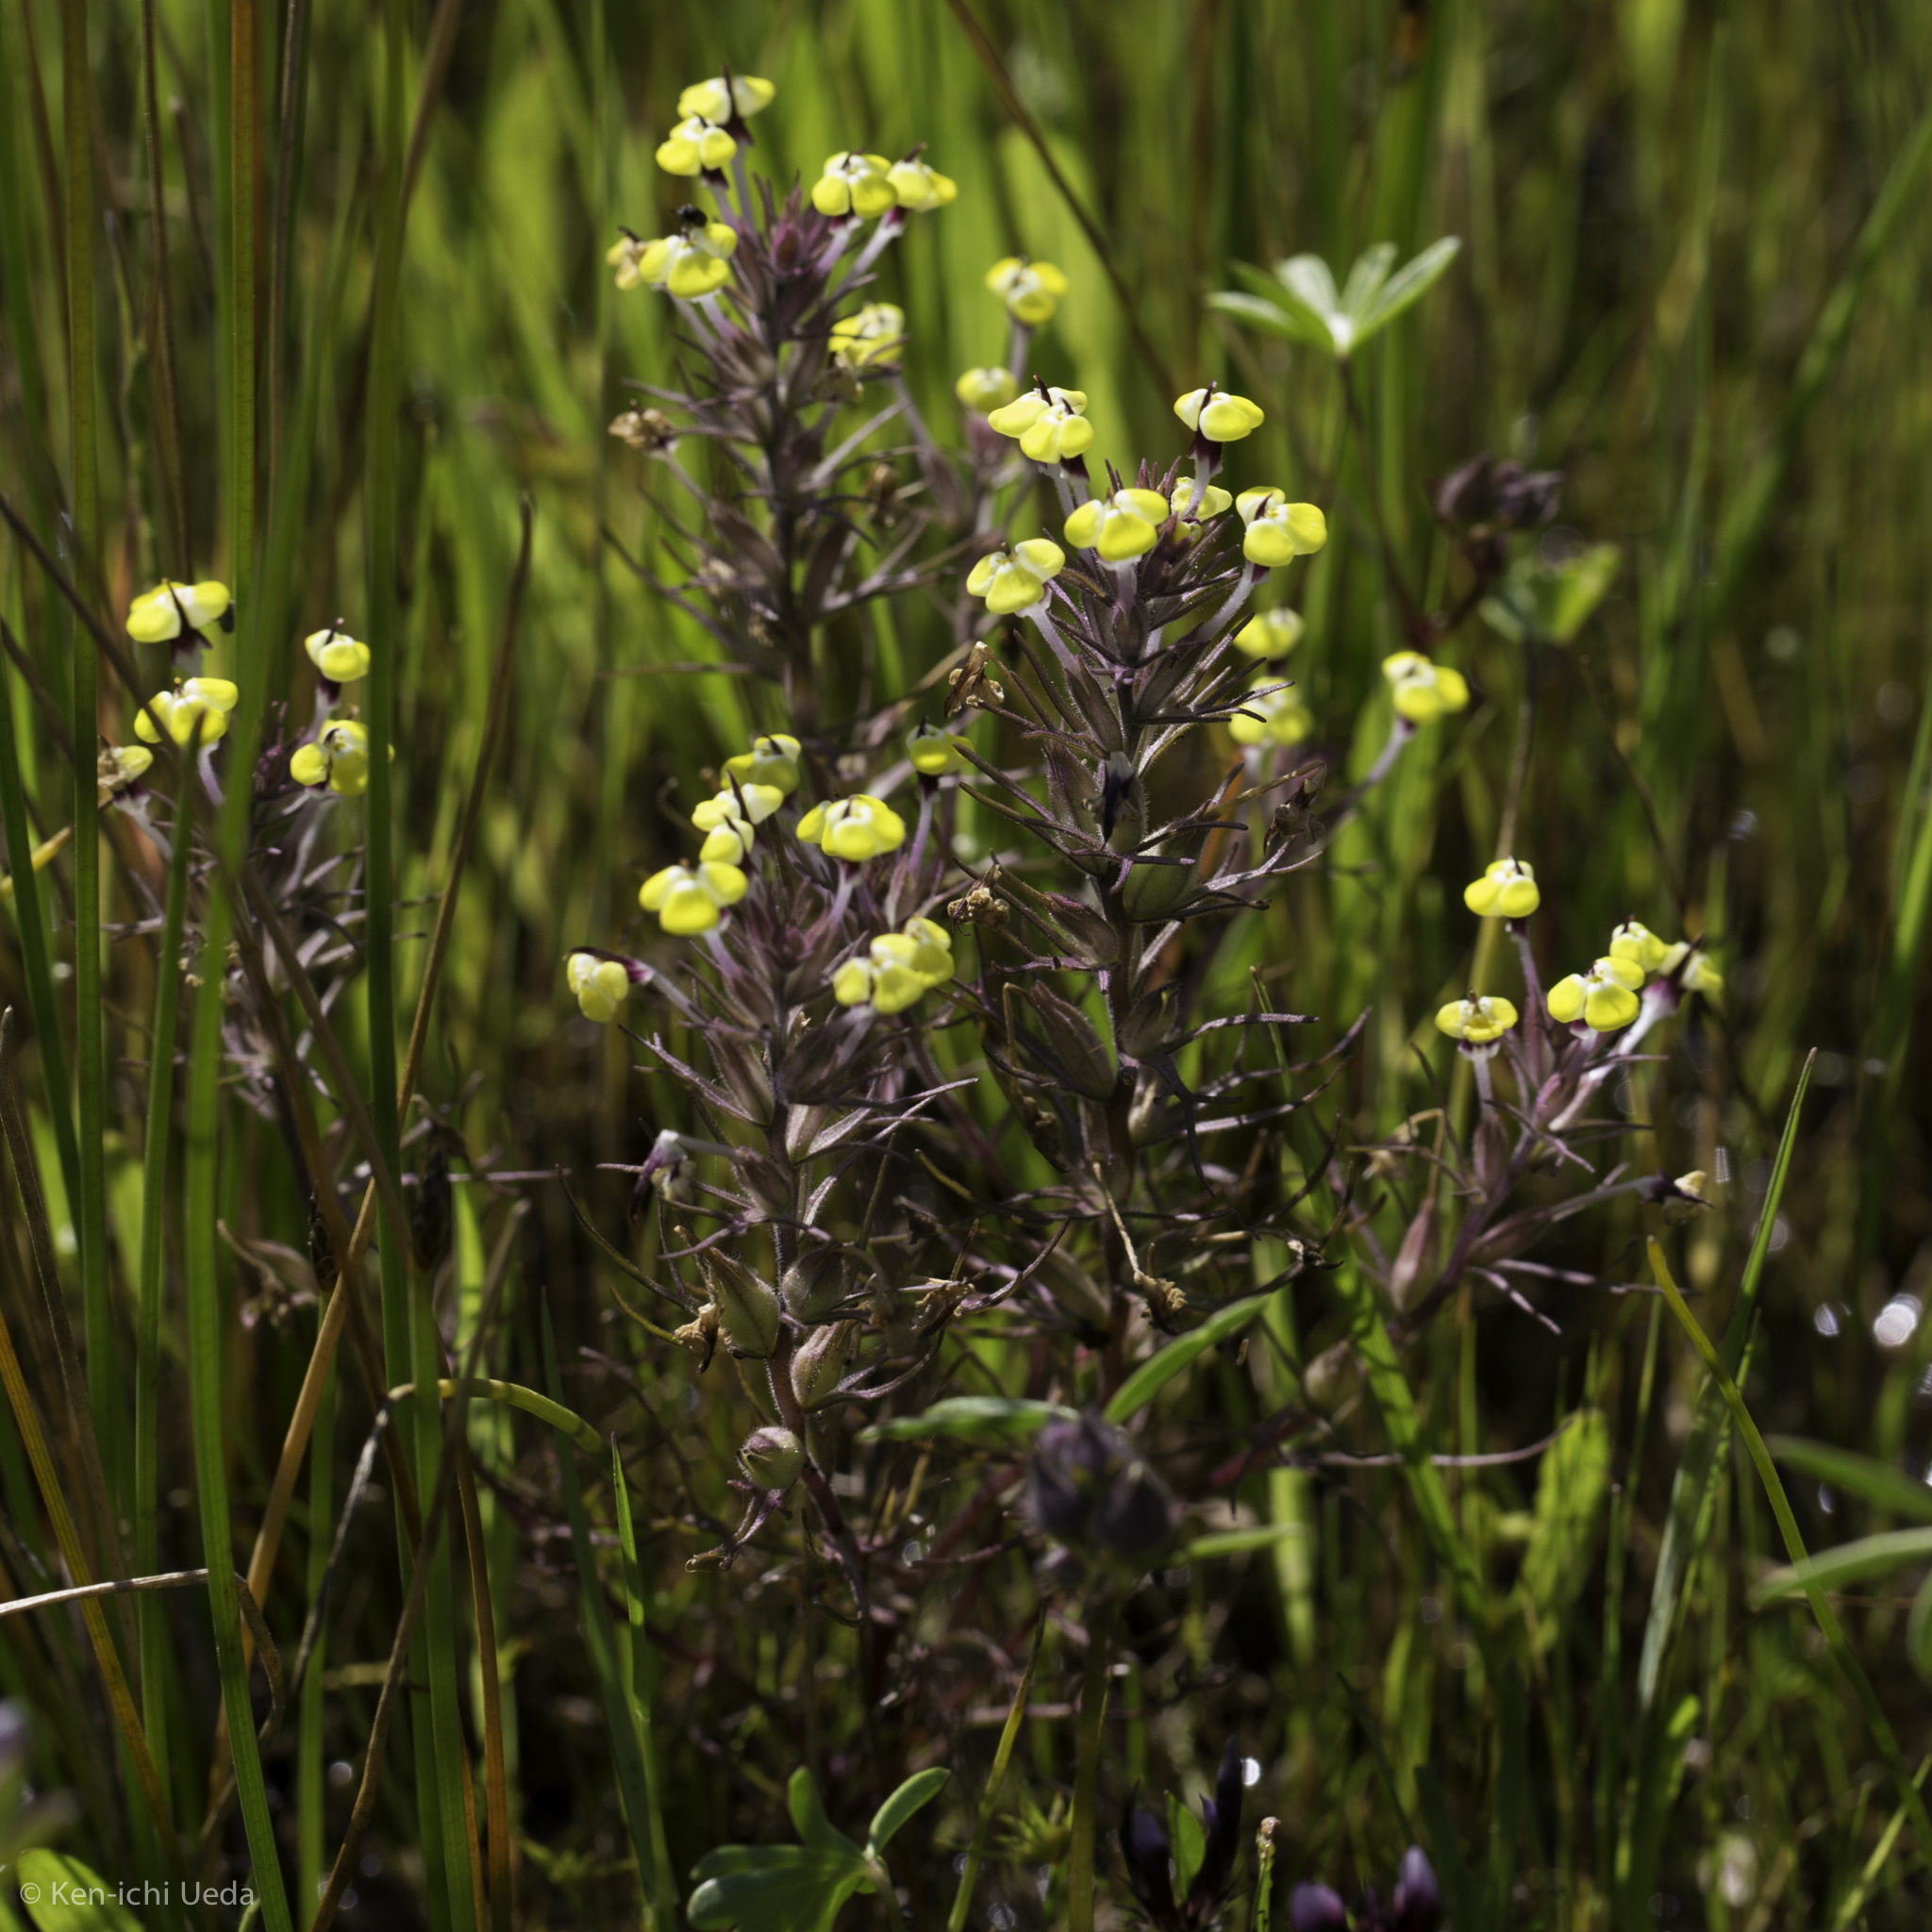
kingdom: Plantae
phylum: Tracheophyta
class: Magnoliopsida
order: Lamiales
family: Orobanchaceae
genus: Triphysaria
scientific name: Triphysaria eriantha
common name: Johnny-tuck
